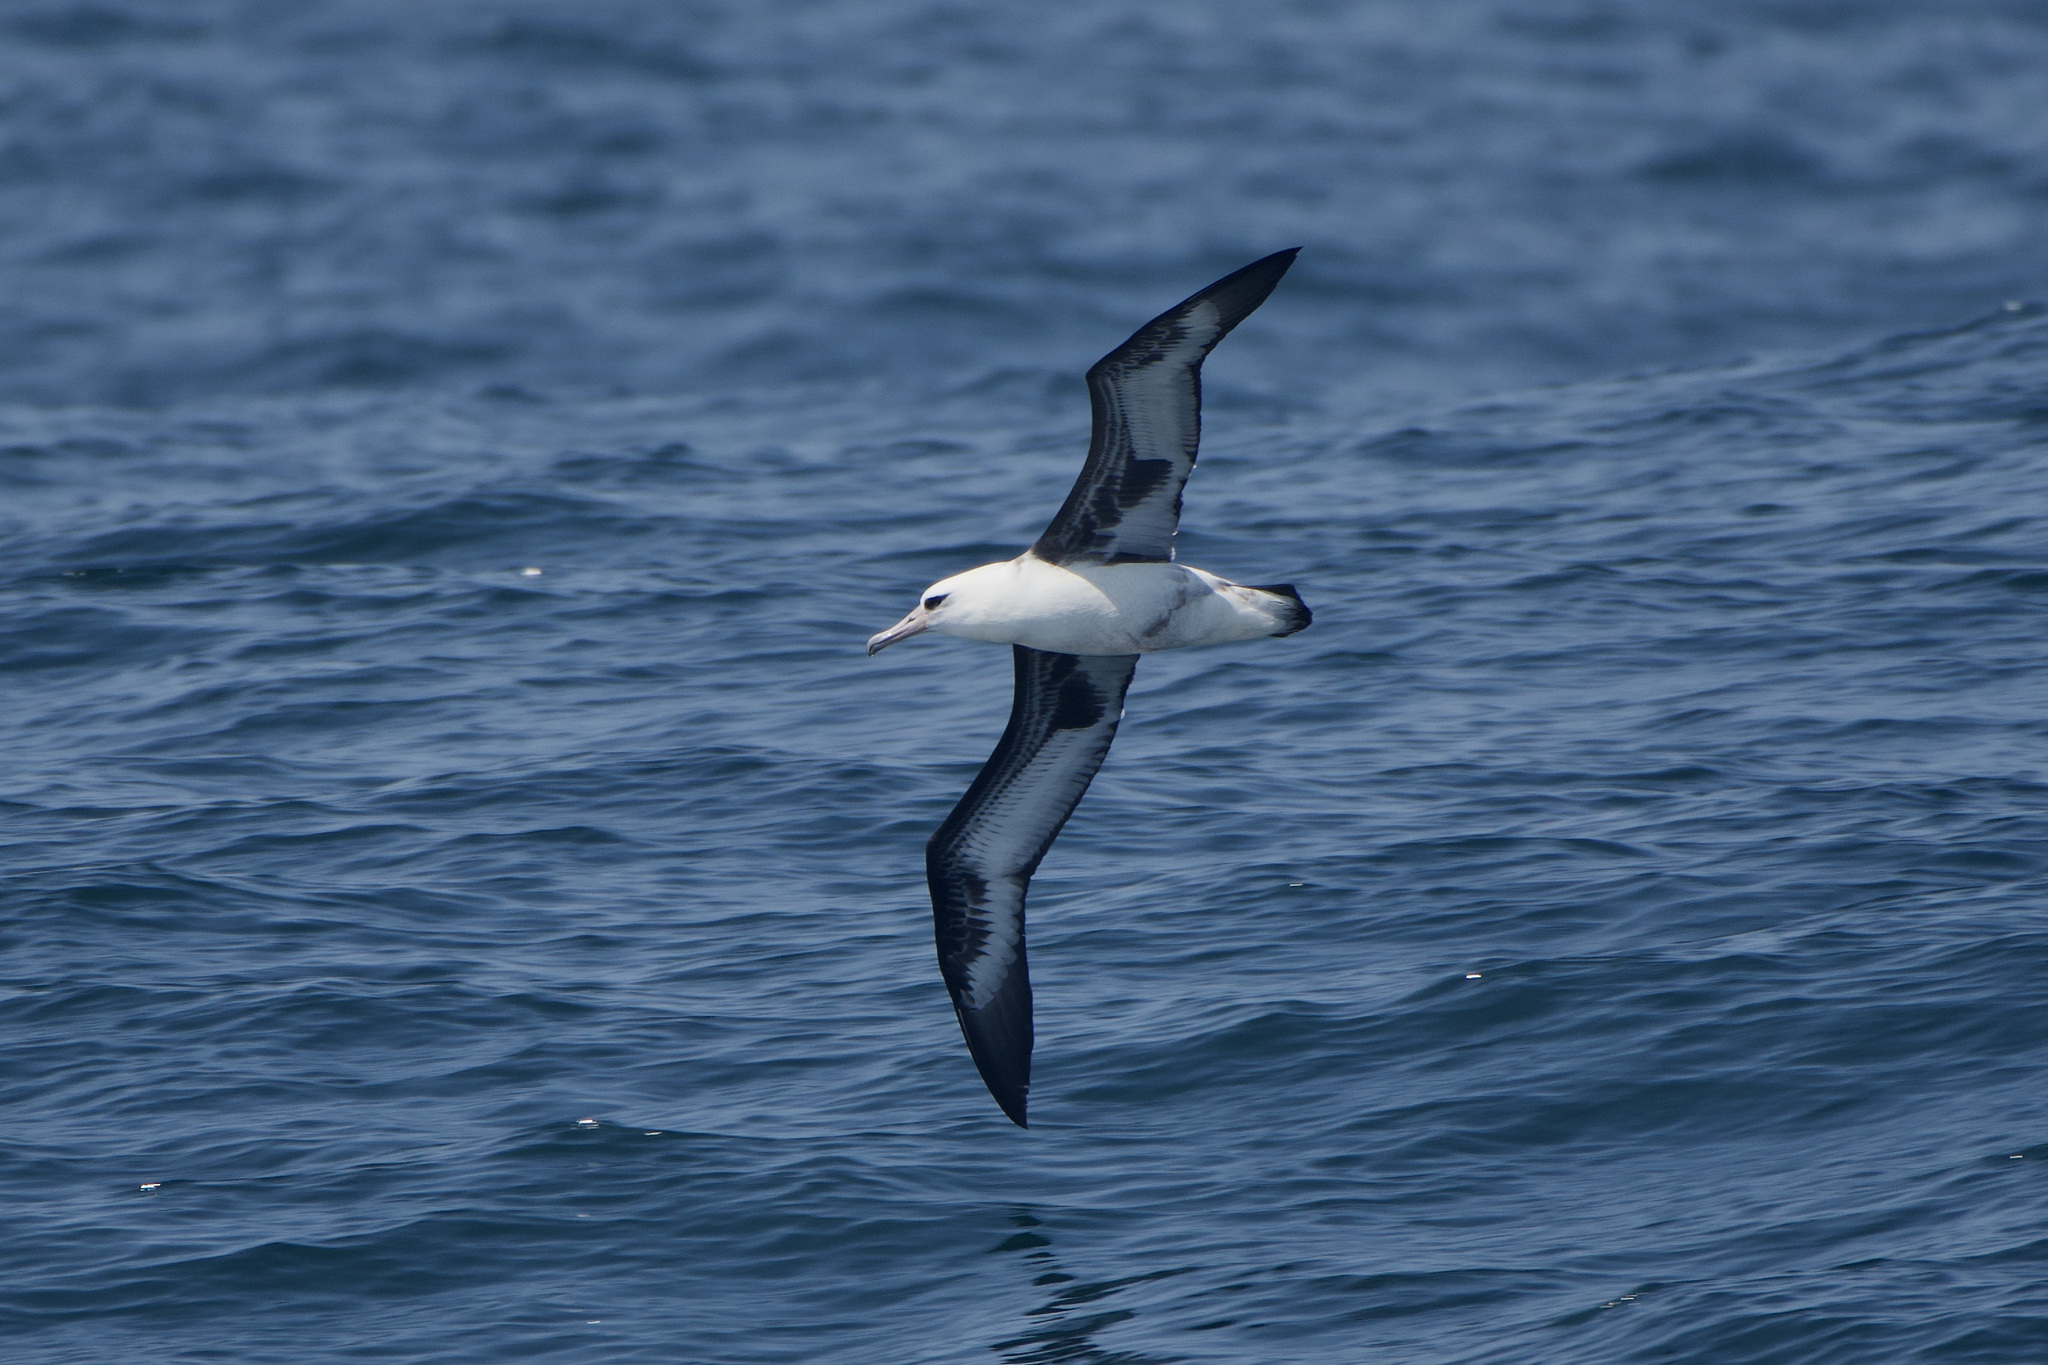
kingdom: Animalia
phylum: Chordata
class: Aves
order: Procellariiformes
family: Diomedeidae
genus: Phoebastria
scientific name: Phoebastria immutabilis
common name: Laysan albatross
